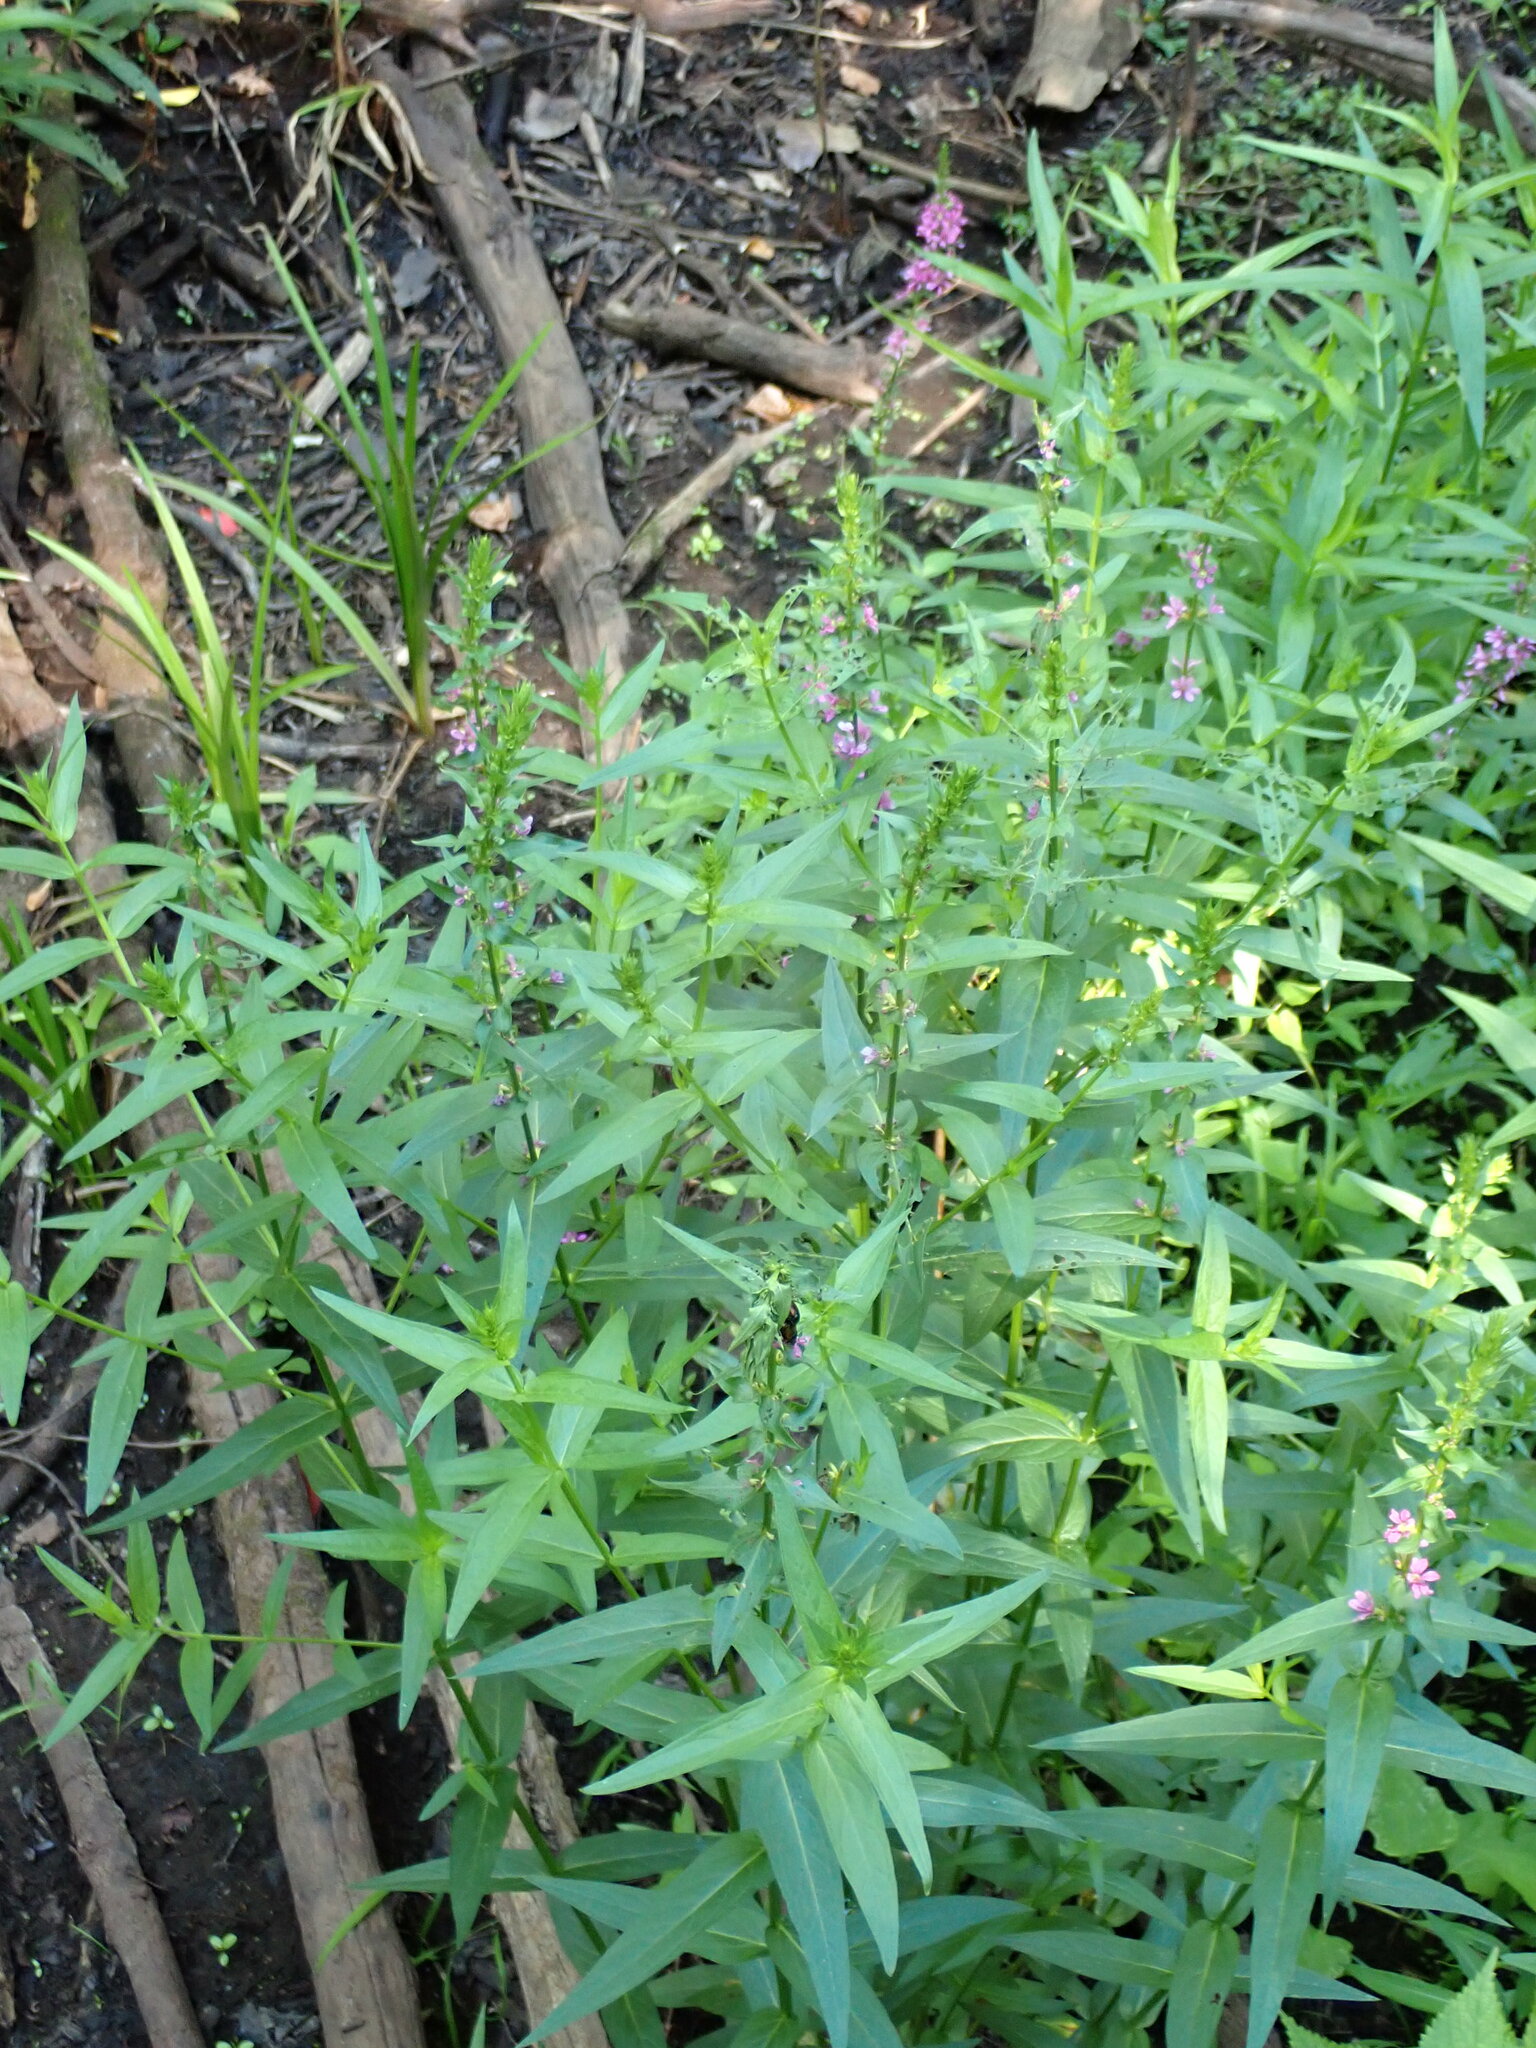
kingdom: Plantae
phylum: Tracheophyta
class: Magnoliopsida
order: Myrtales
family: Lythraceae
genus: Lythrum
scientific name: Lythrum salicaria
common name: Purple loosestrife
